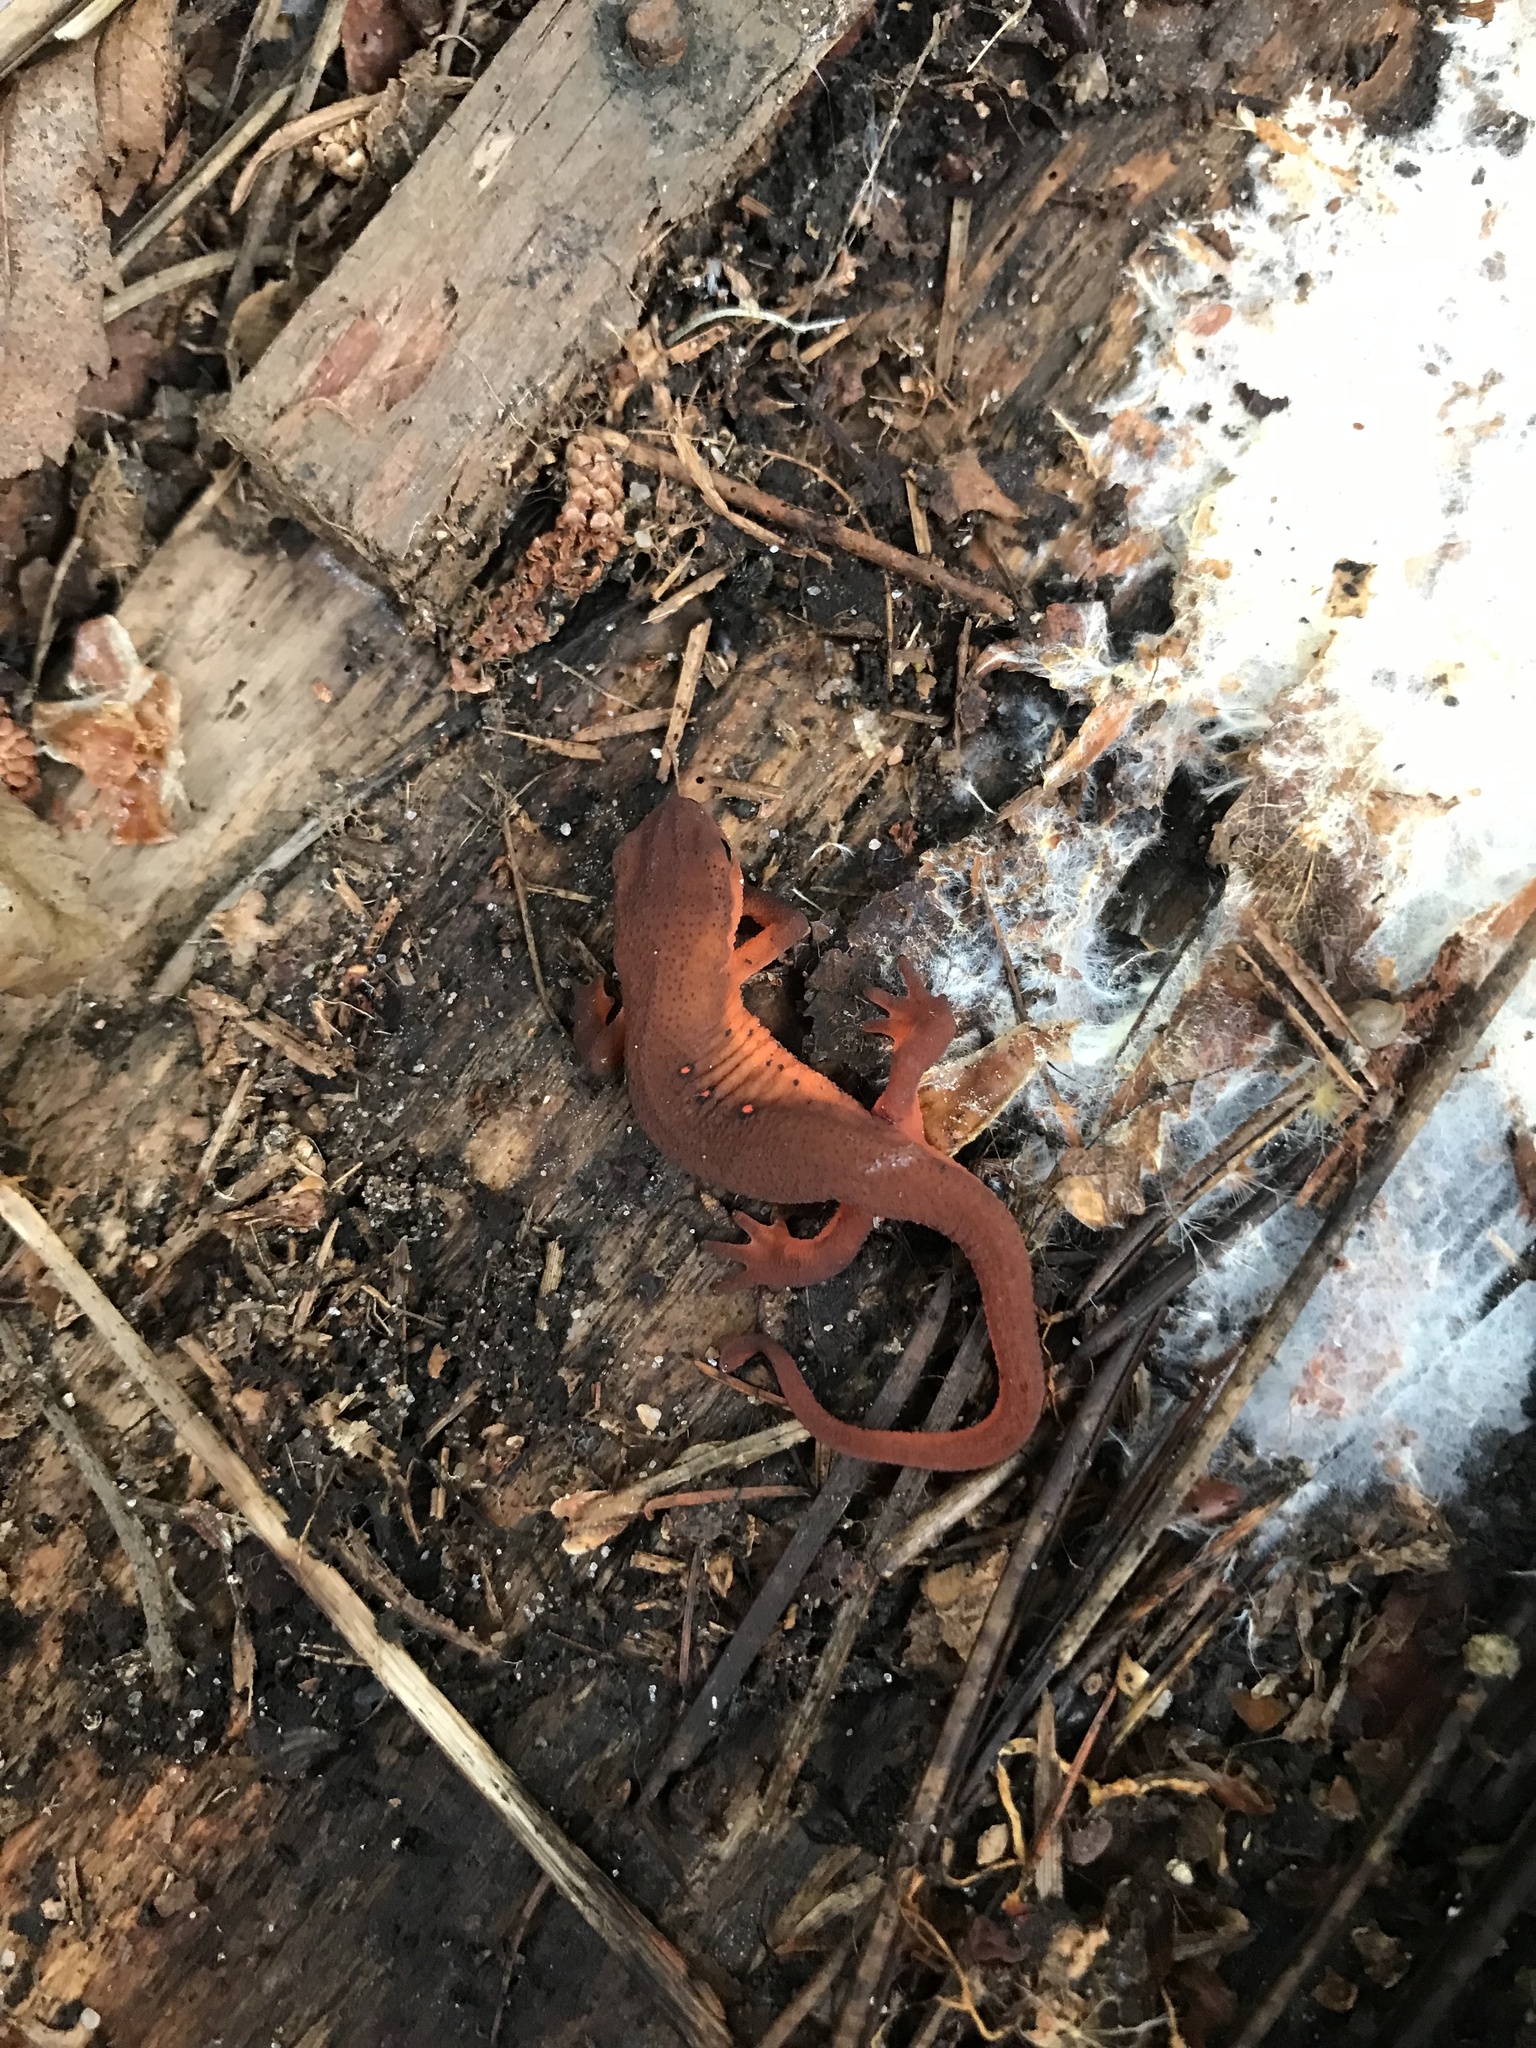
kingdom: Animalia
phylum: Chordata
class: Amphibia
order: Caudata
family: Salamandridae
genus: Notophthalmus
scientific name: Notophthalmus viridescens
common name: Eastern newt
